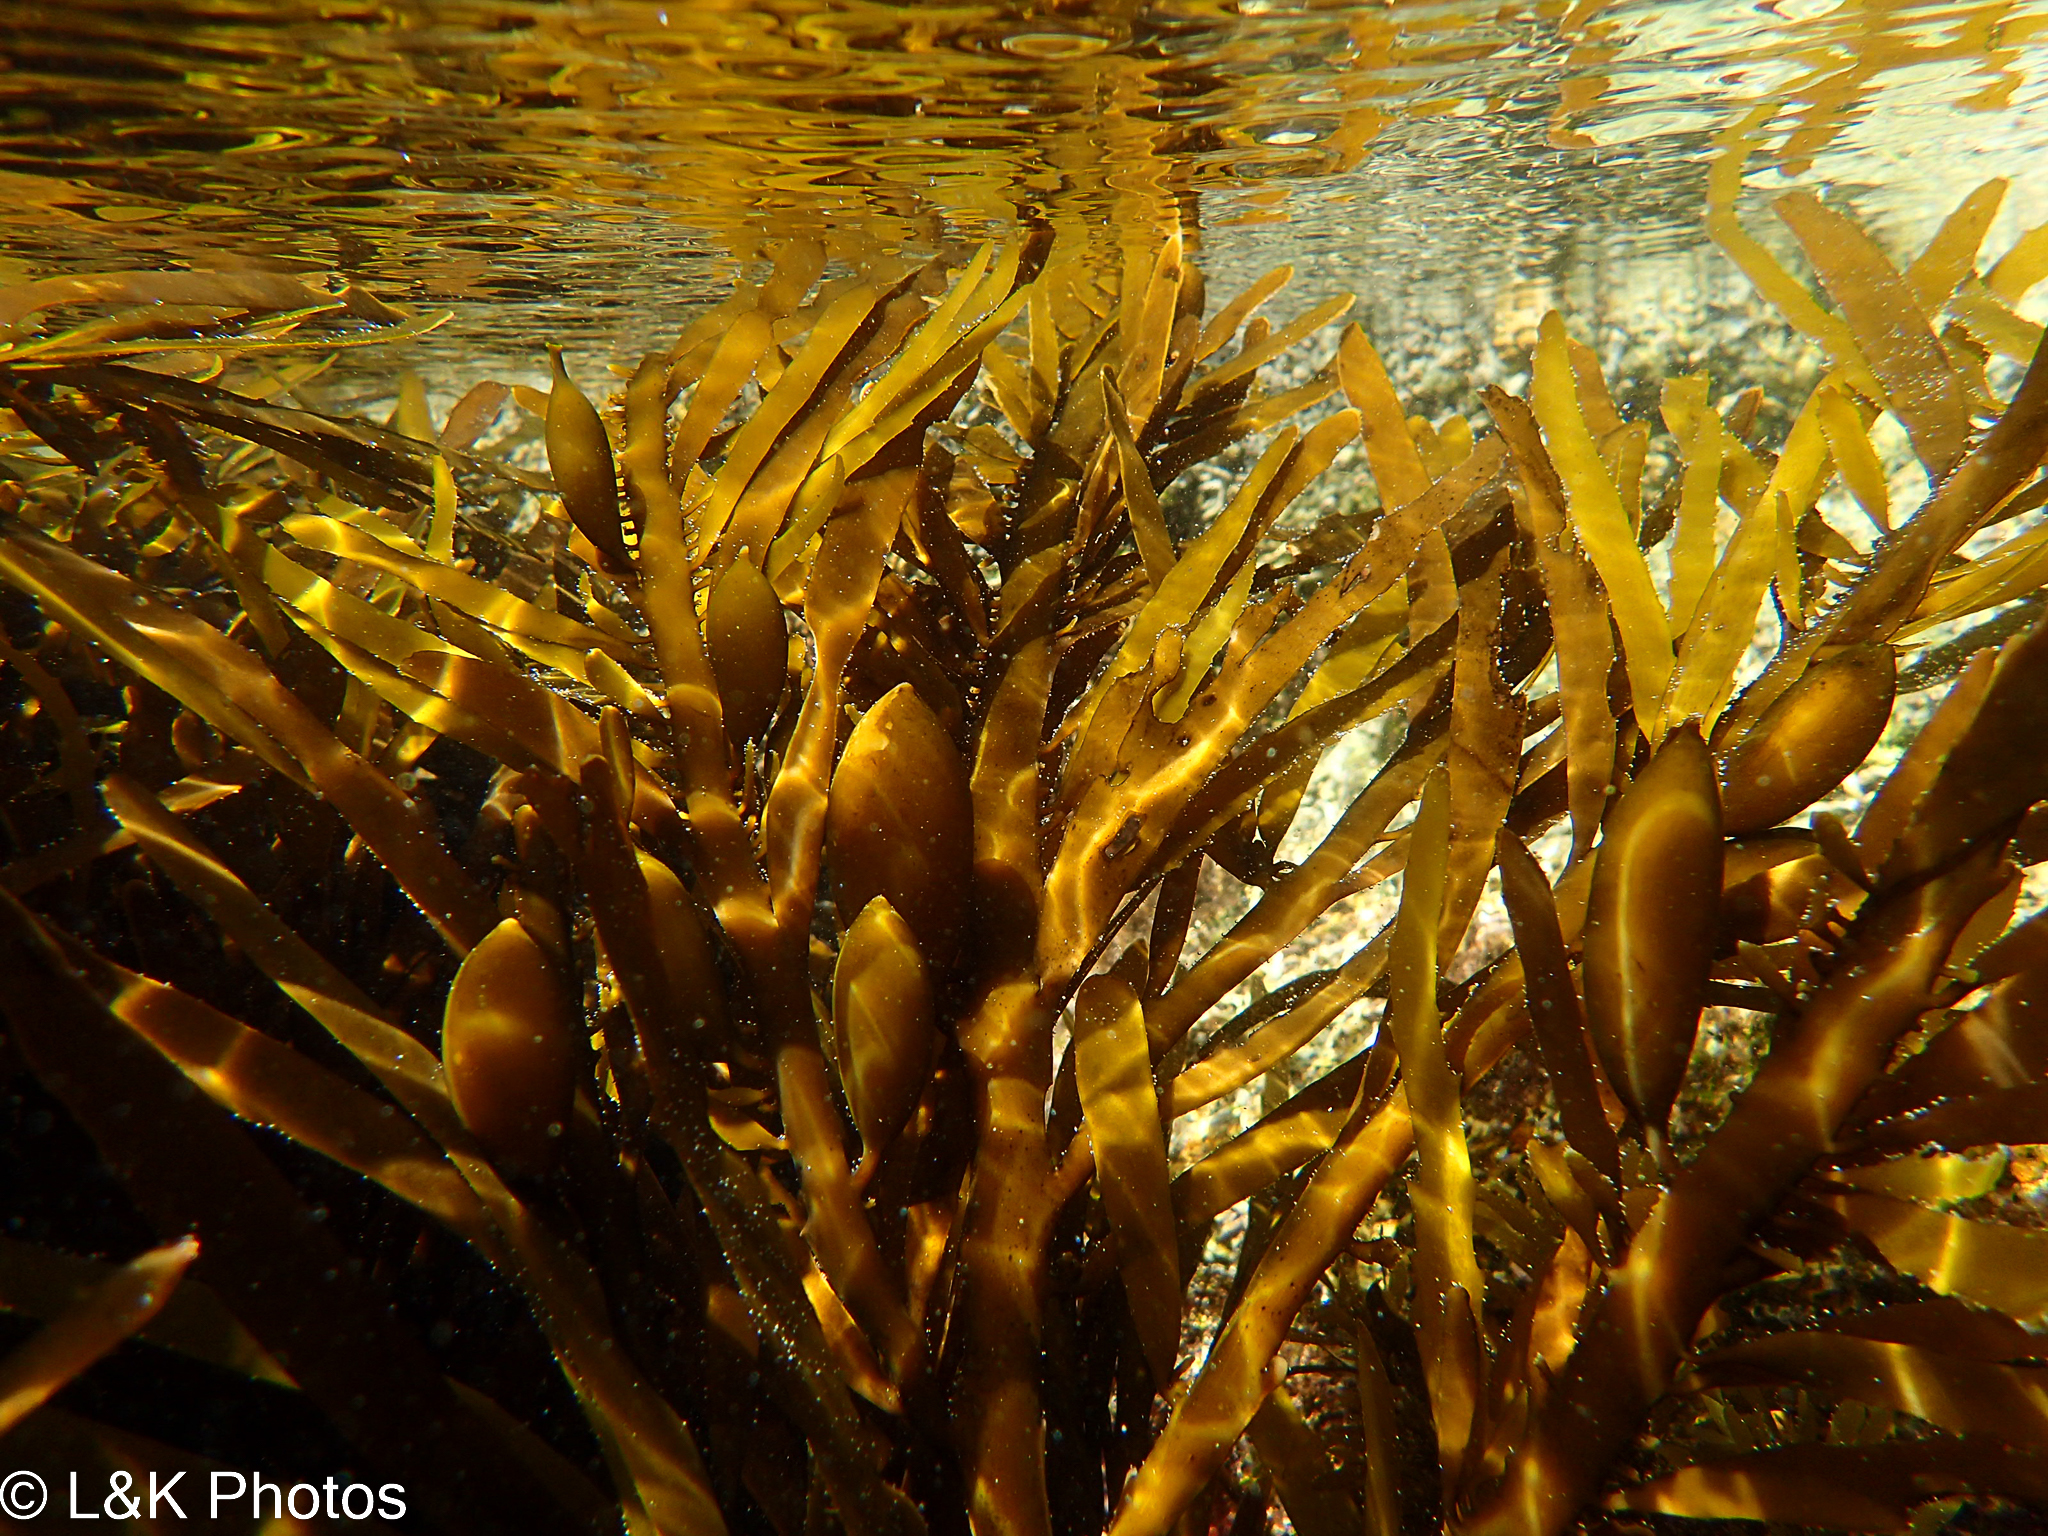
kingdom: Chromista
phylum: Ochrophyta
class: Phaeophyceae
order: Fucales
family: Seirococcaceae
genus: Phyllospora
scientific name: Phyllospora
